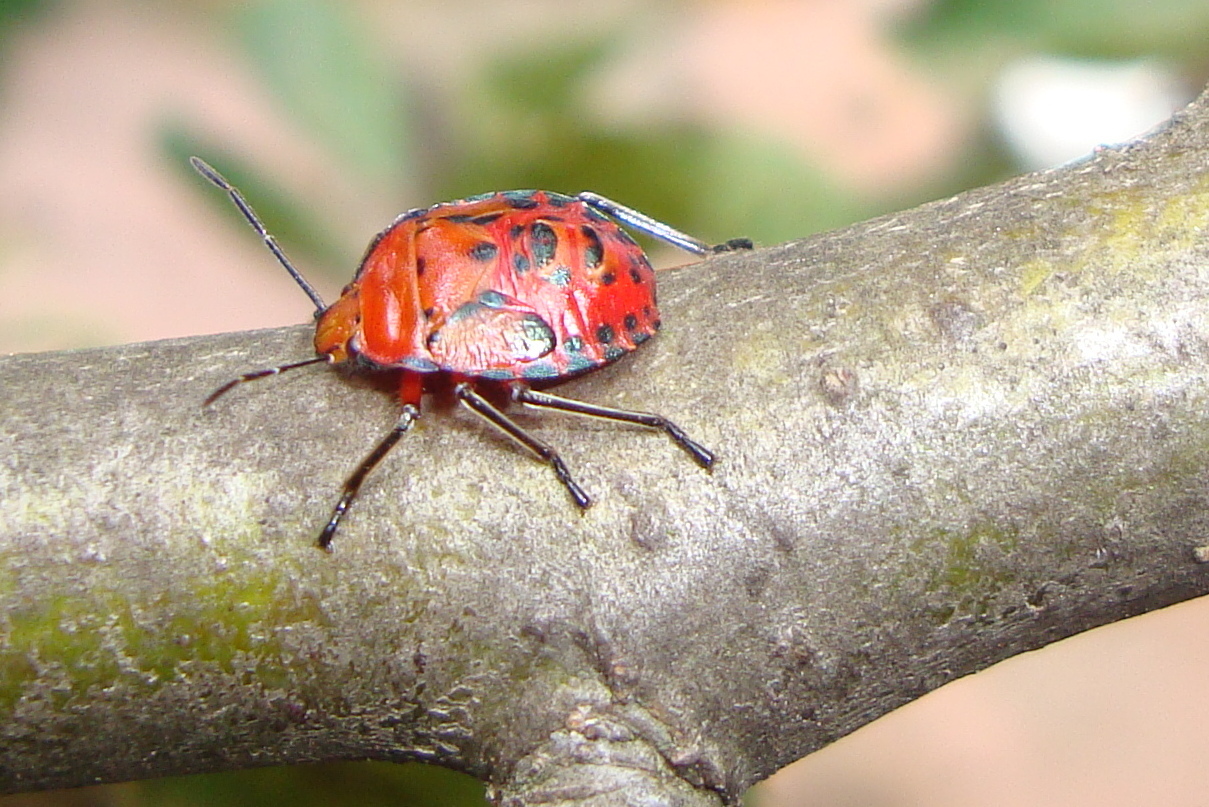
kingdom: Animalia
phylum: Arthropoda
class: Insecta
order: Hemiptera
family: Pentatomidae
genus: Brontocoris
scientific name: Brontocoris
